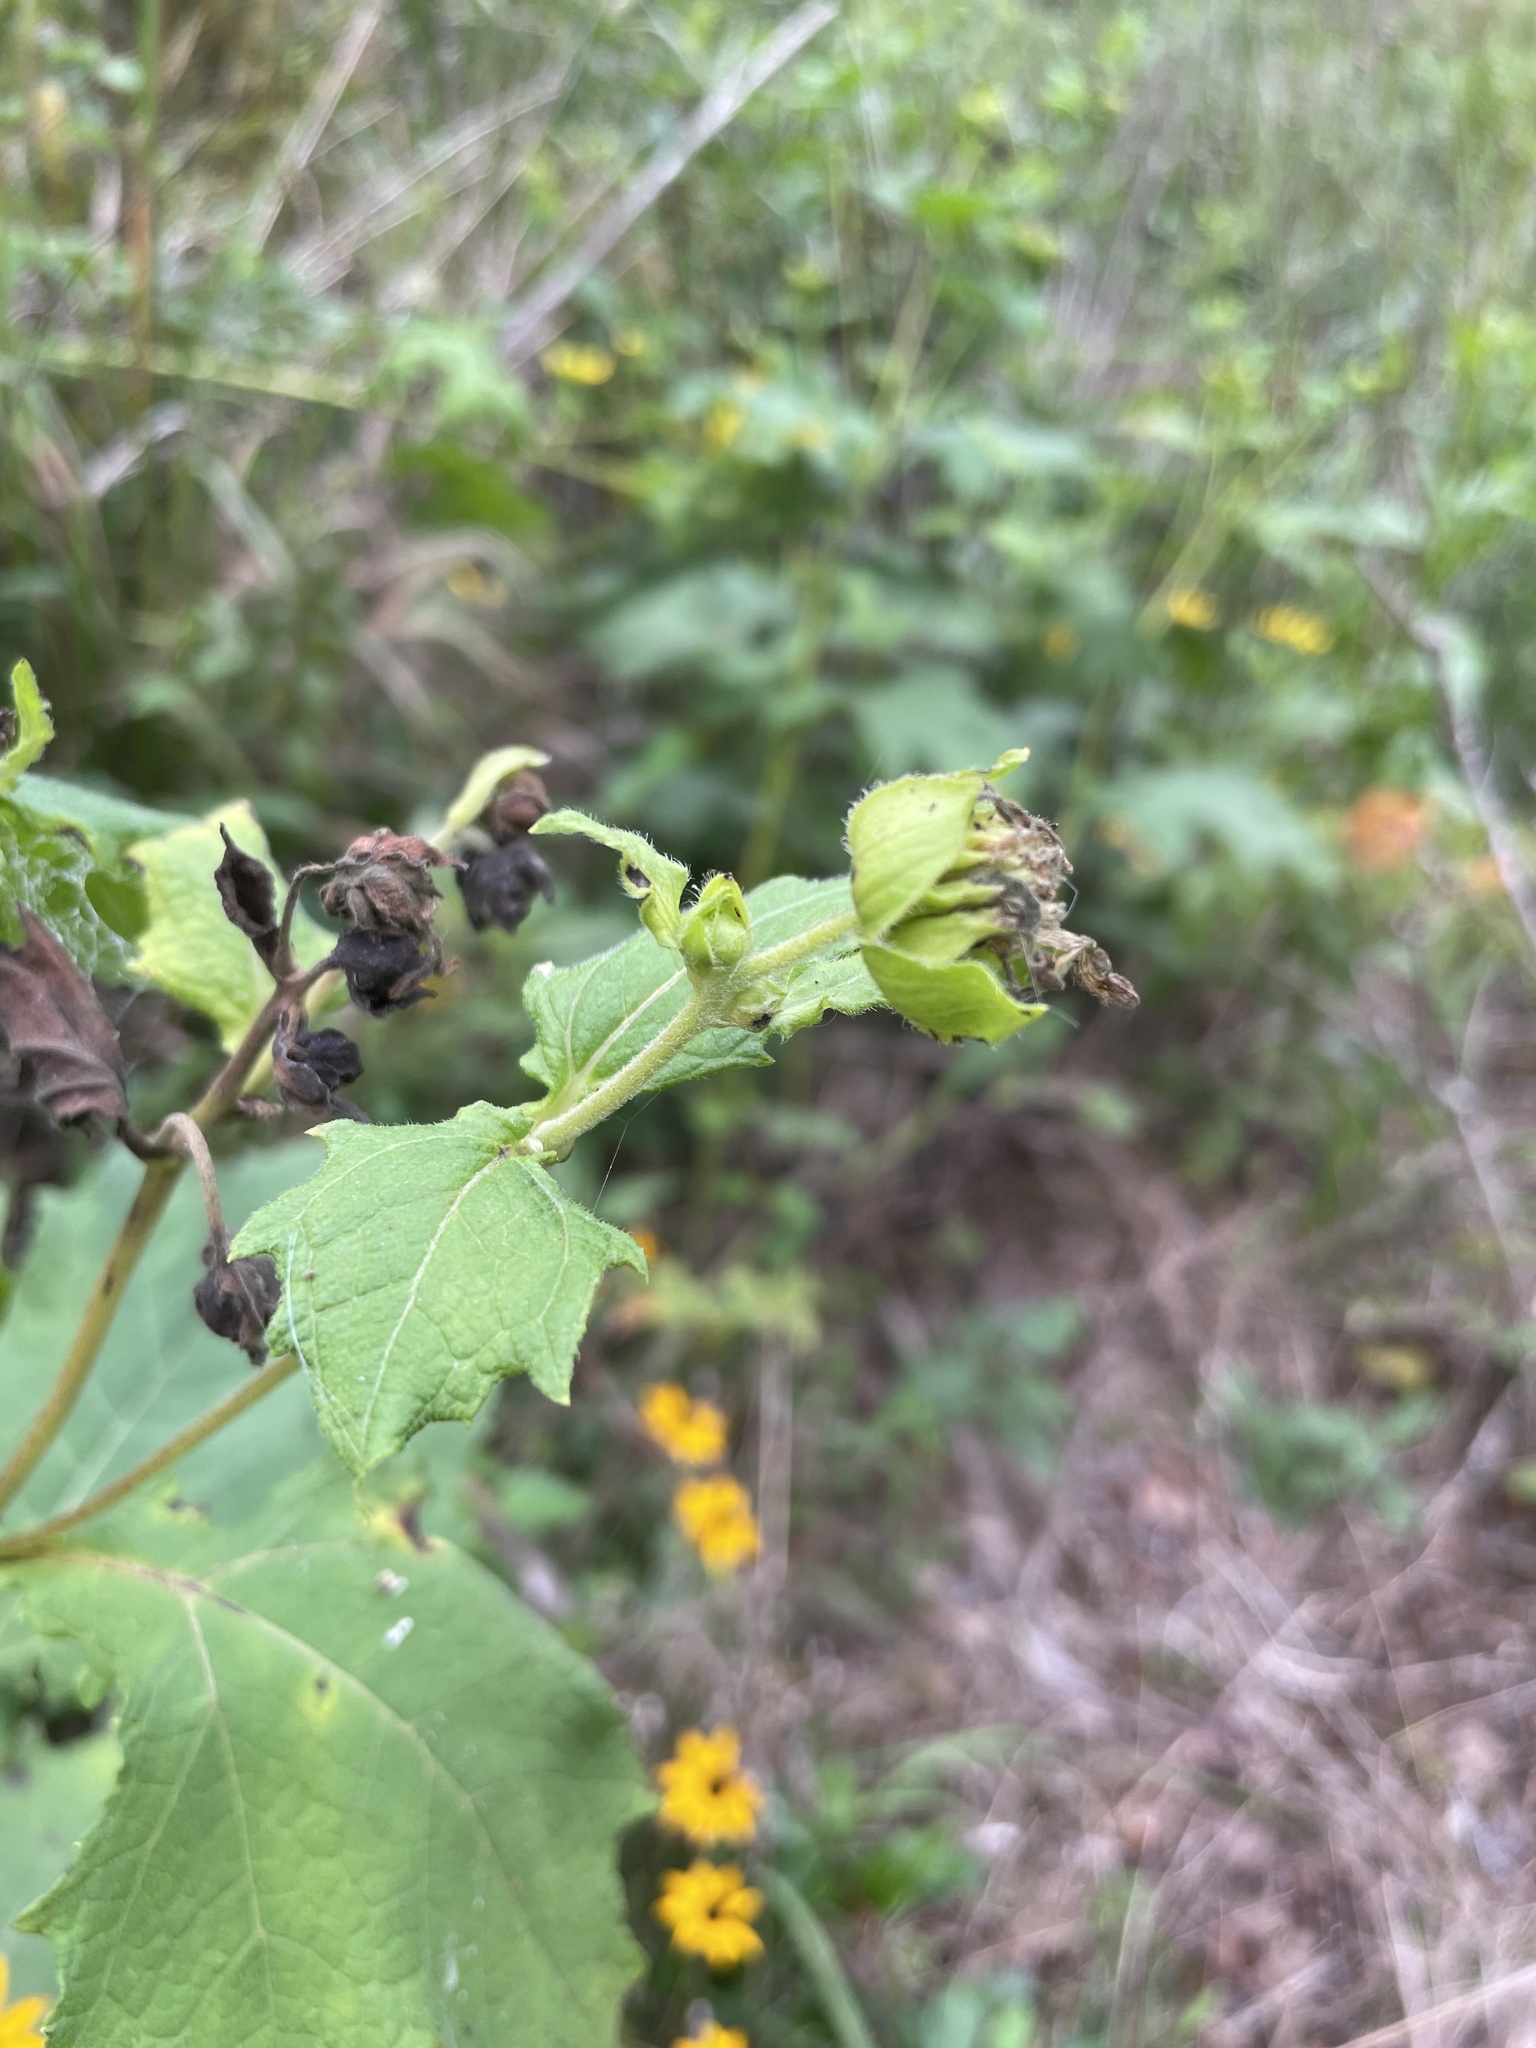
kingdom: Plantae
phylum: Tracheophyta
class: Magnoliopsida
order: Asterales
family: Asteraceae
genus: Smallanthus
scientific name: Smallanthus uvedalia
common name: Bear's-foot
